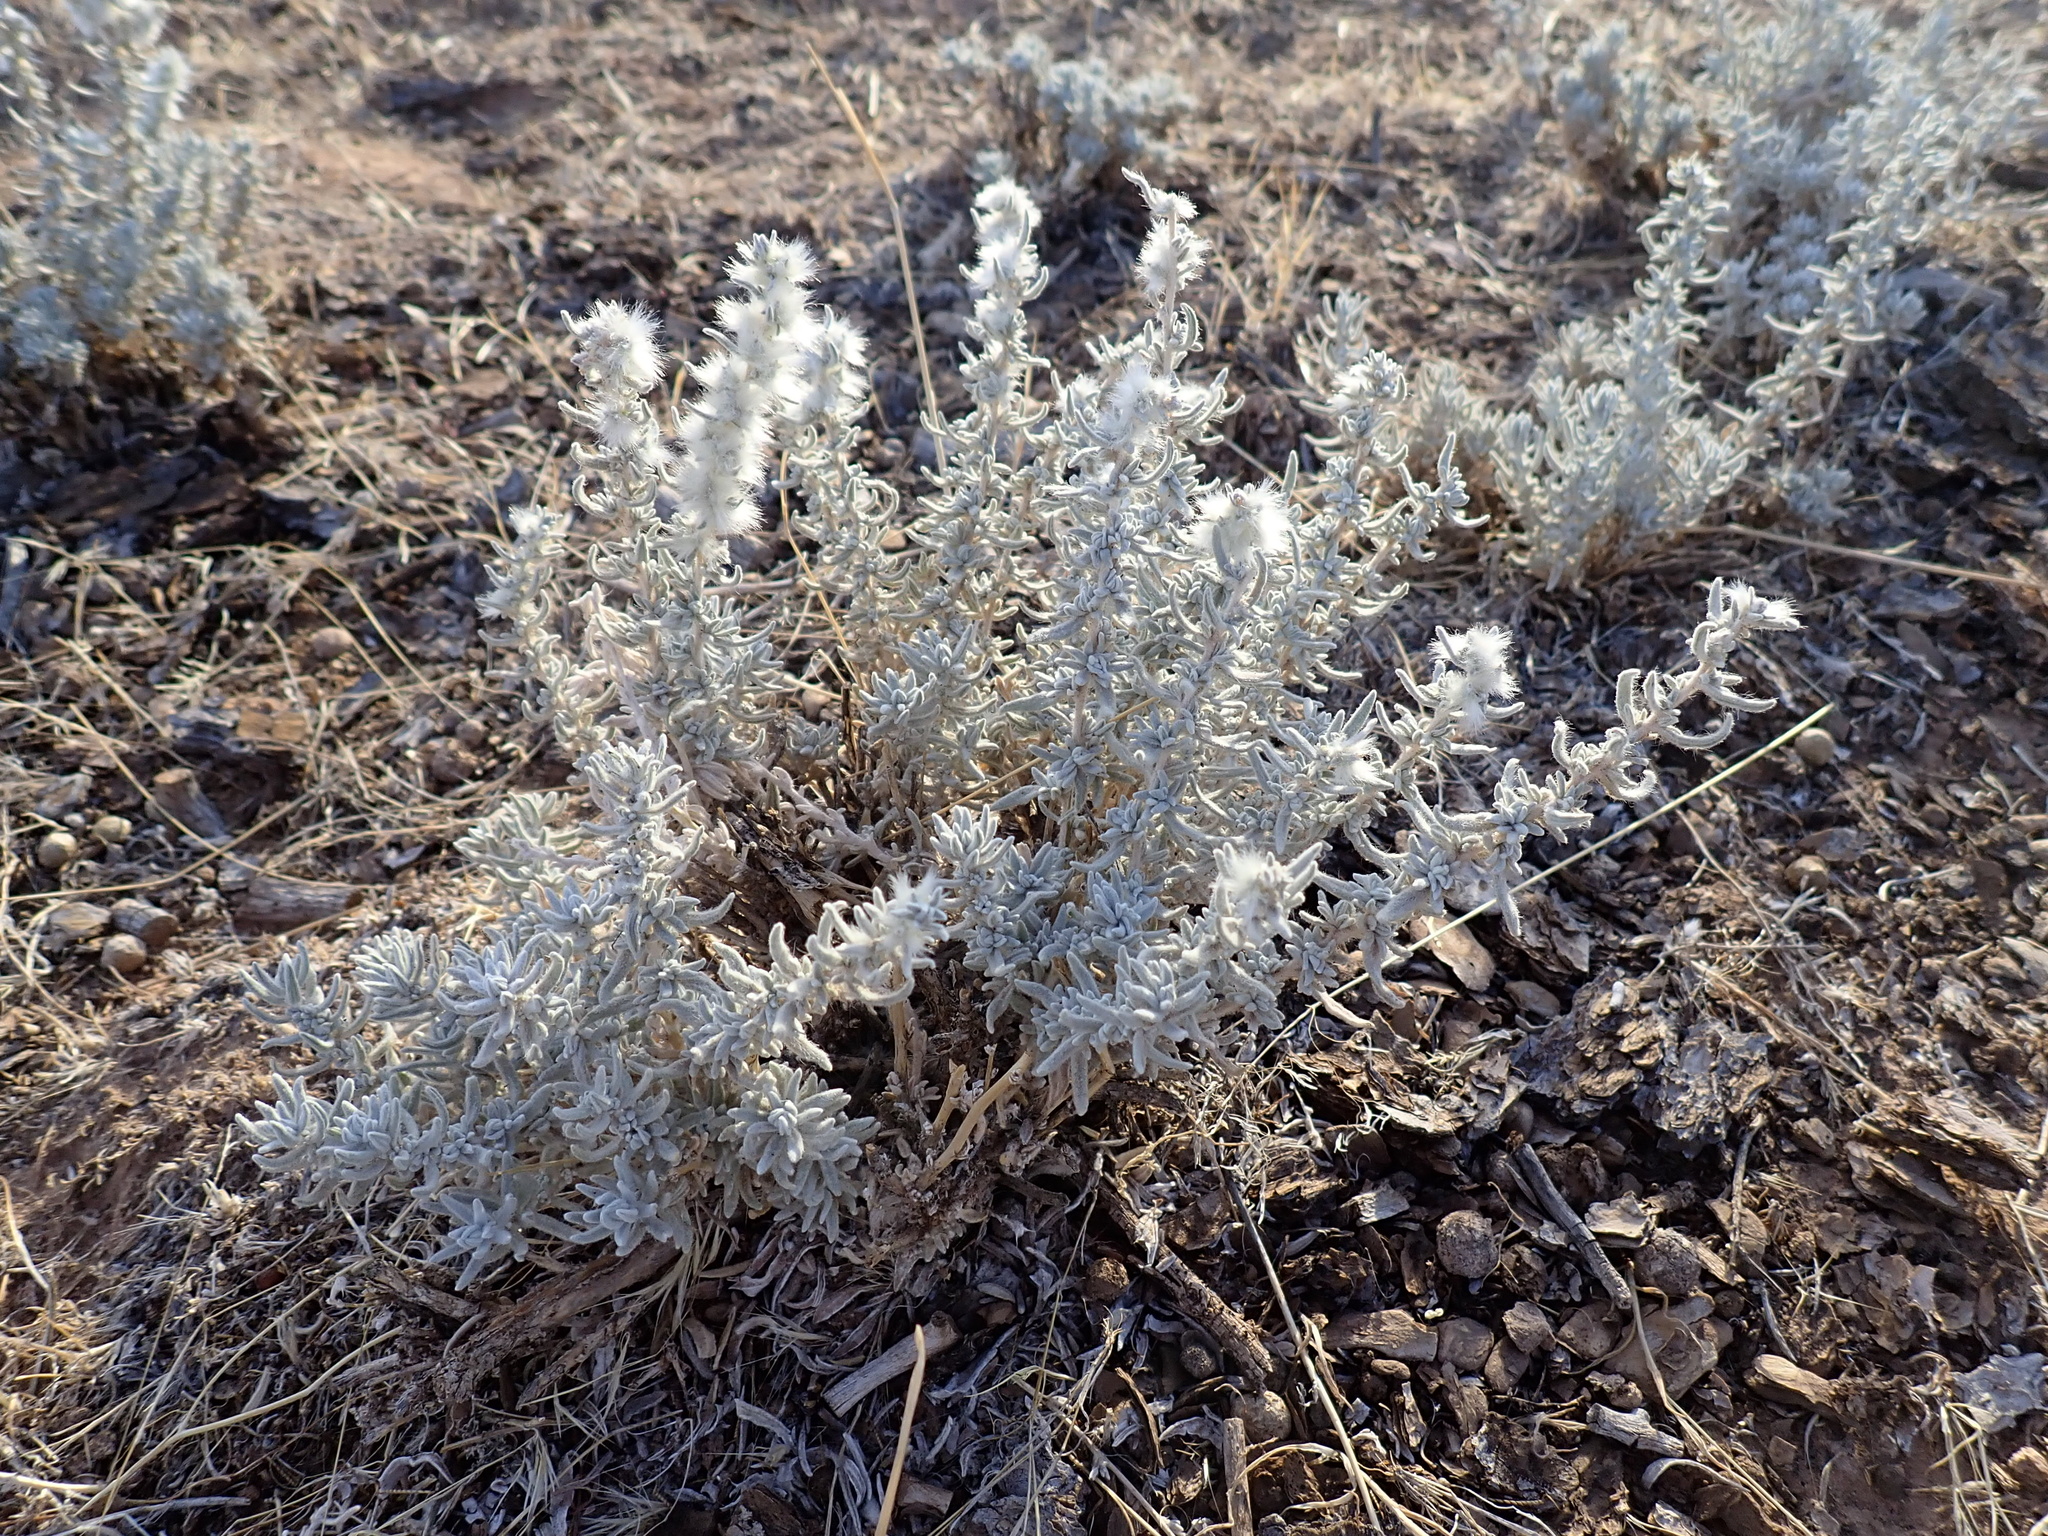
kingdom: Plantae
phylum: Tracheophyta
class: Magnoliopsida
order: Caryophyllales
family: Amaranthaceae
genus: Krascheninnikovia
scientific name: Krascheninnikovia lanata
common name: Winterfat
